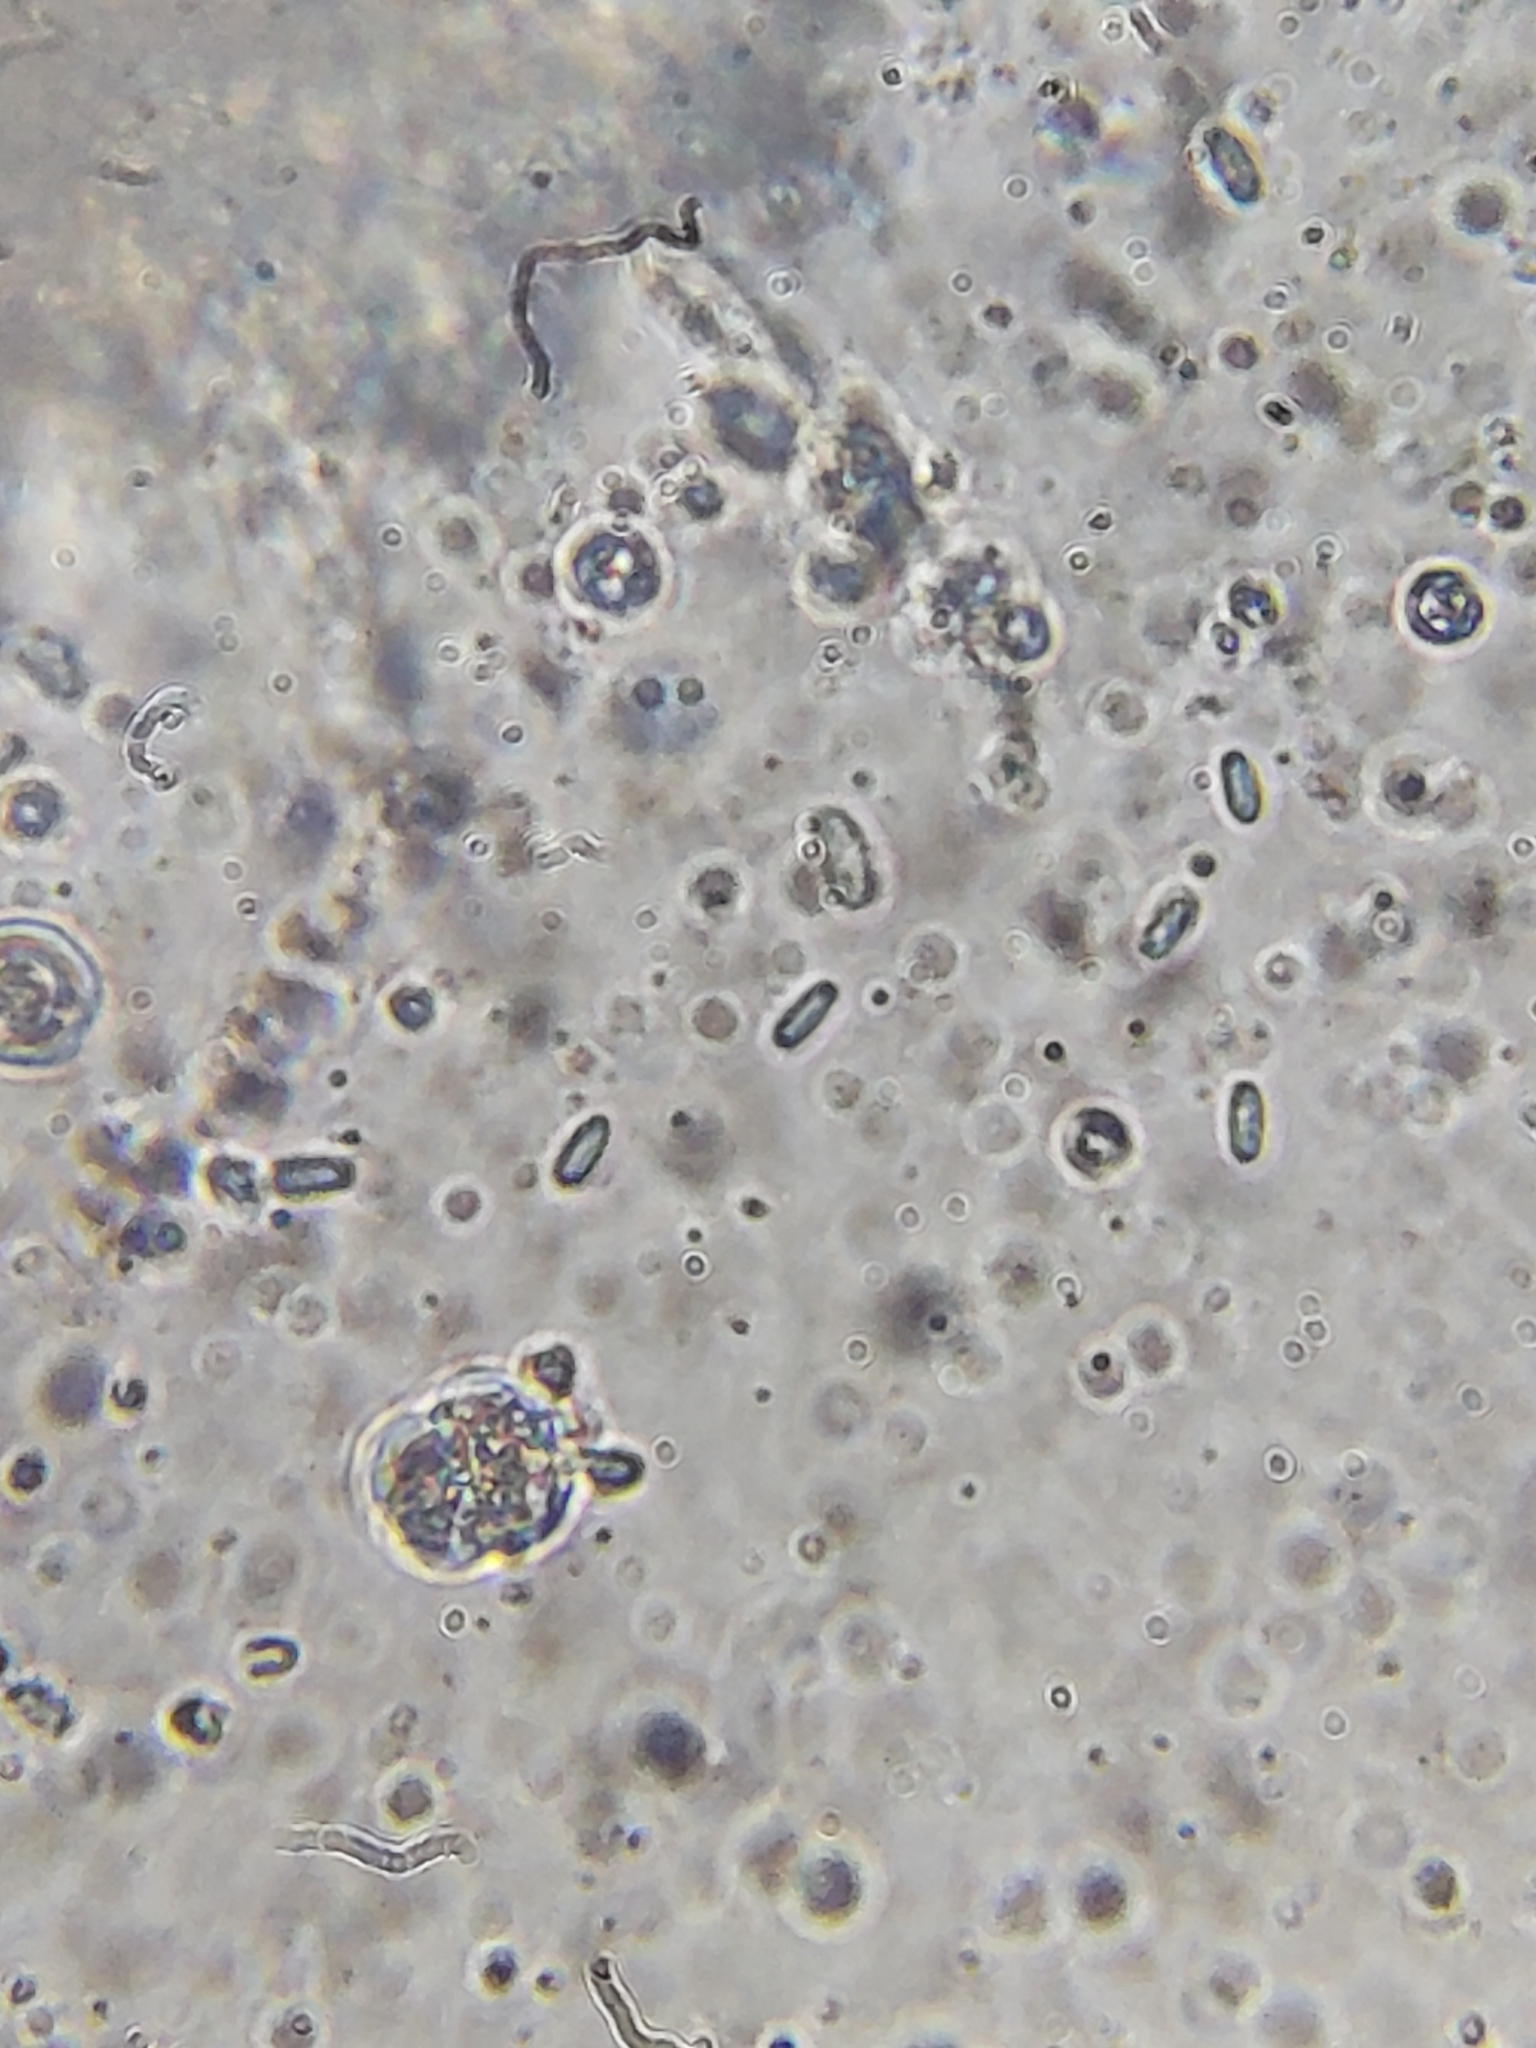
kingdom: Fungi
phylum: Basidiomycota
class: Agaricomycetes
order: Polyporales
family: Irpicaceae
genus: Byssomerulius
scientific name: Byssomerulius incarnatus
